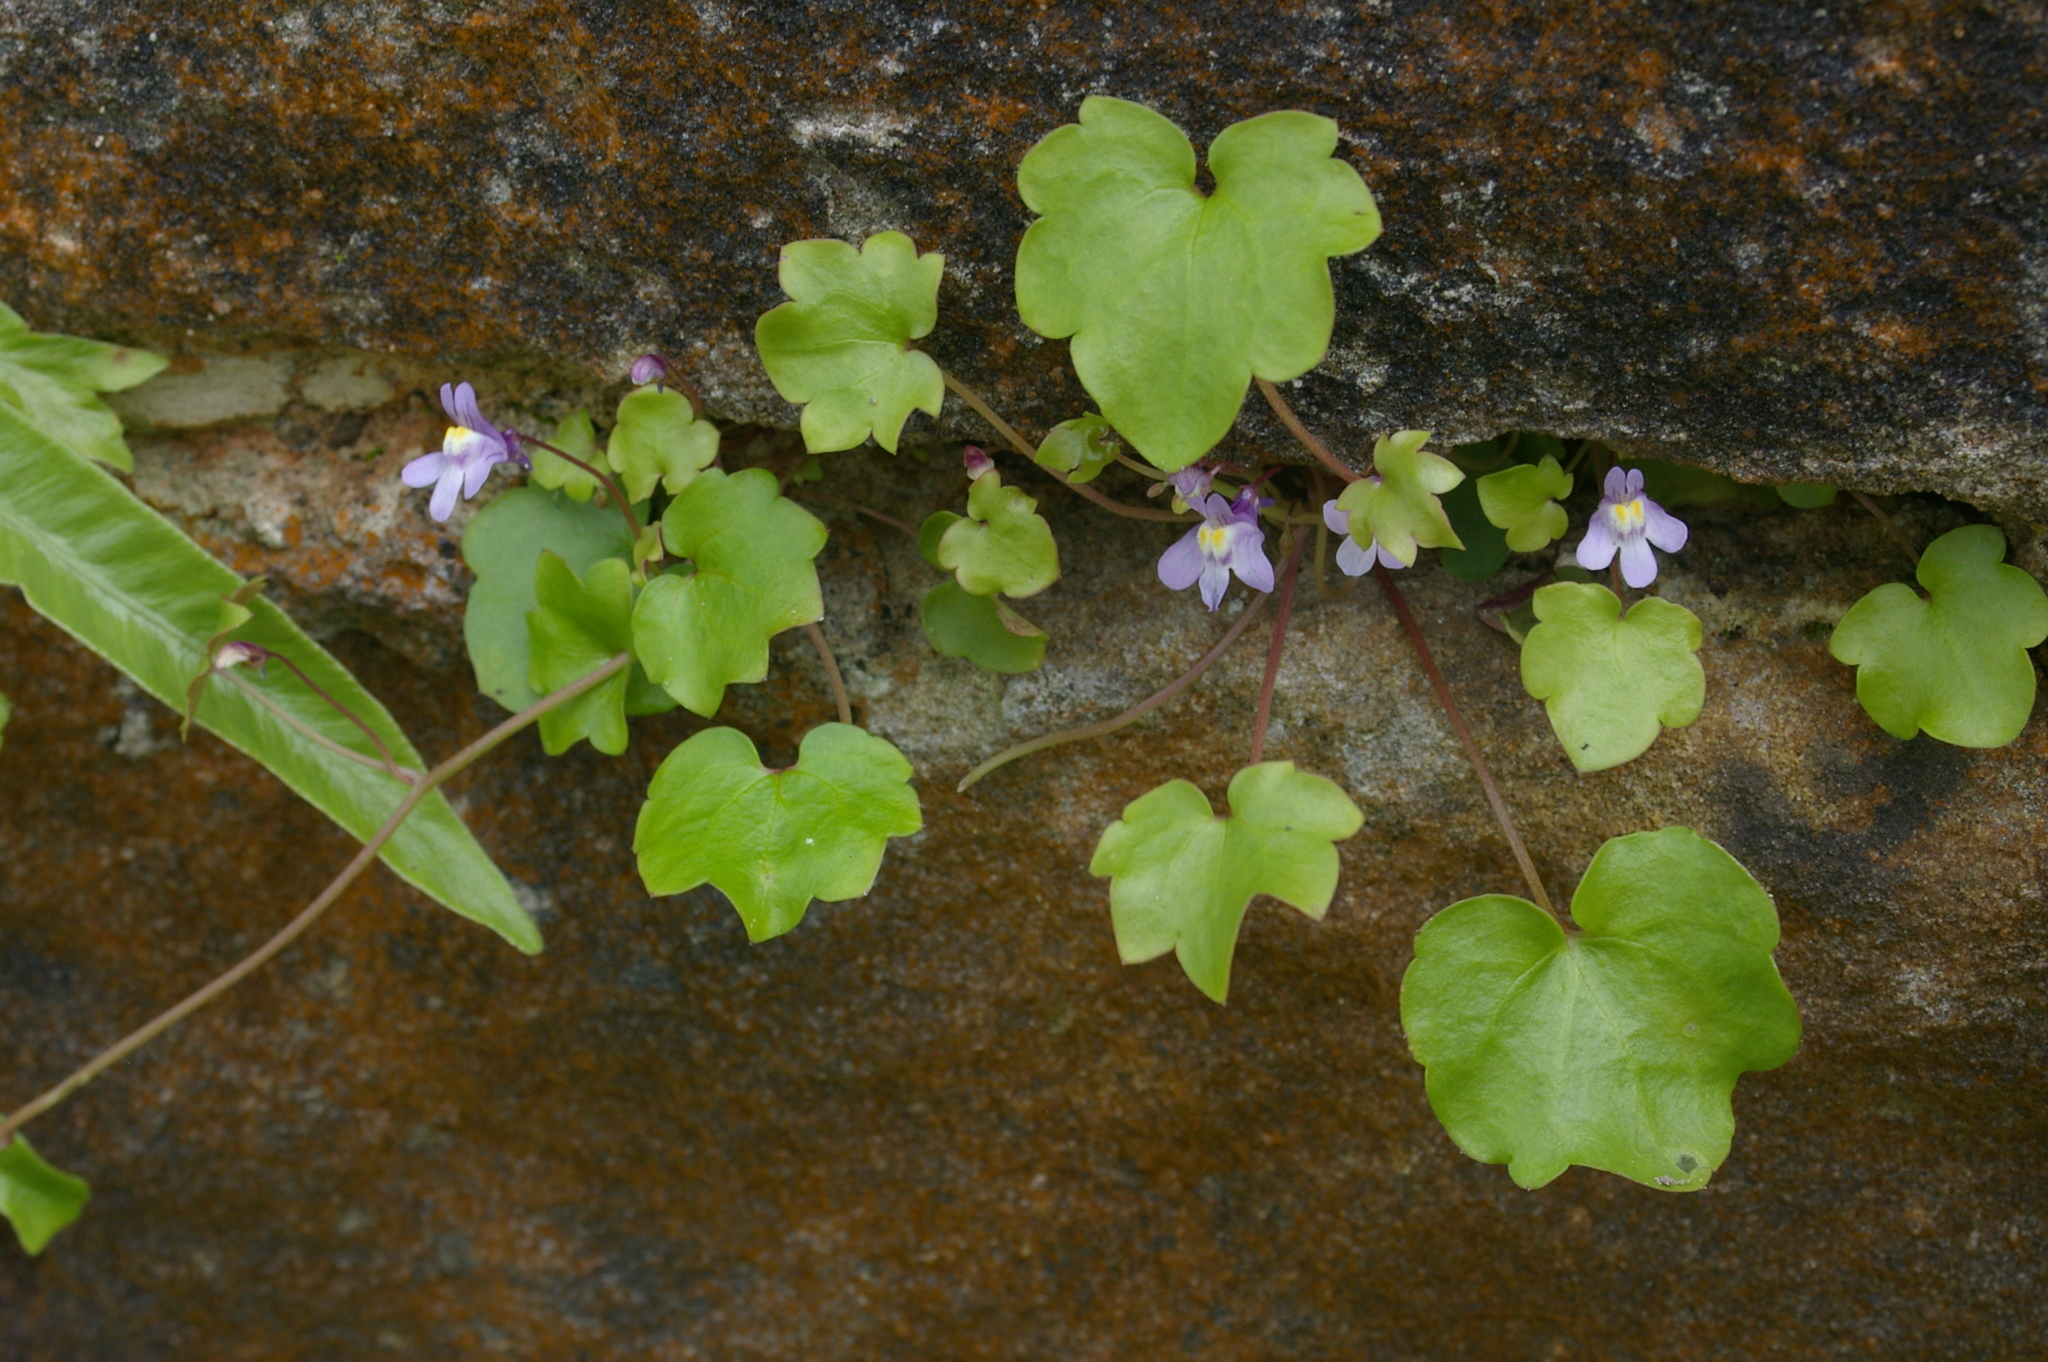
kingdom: Plantae
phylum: Tracheophyta
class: Magnoliopsida
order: Lamiales
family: Plantaginaceae
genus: Cymbalaria
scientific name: Cymbalaria muralis
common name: Ivy-leaved toadflax
